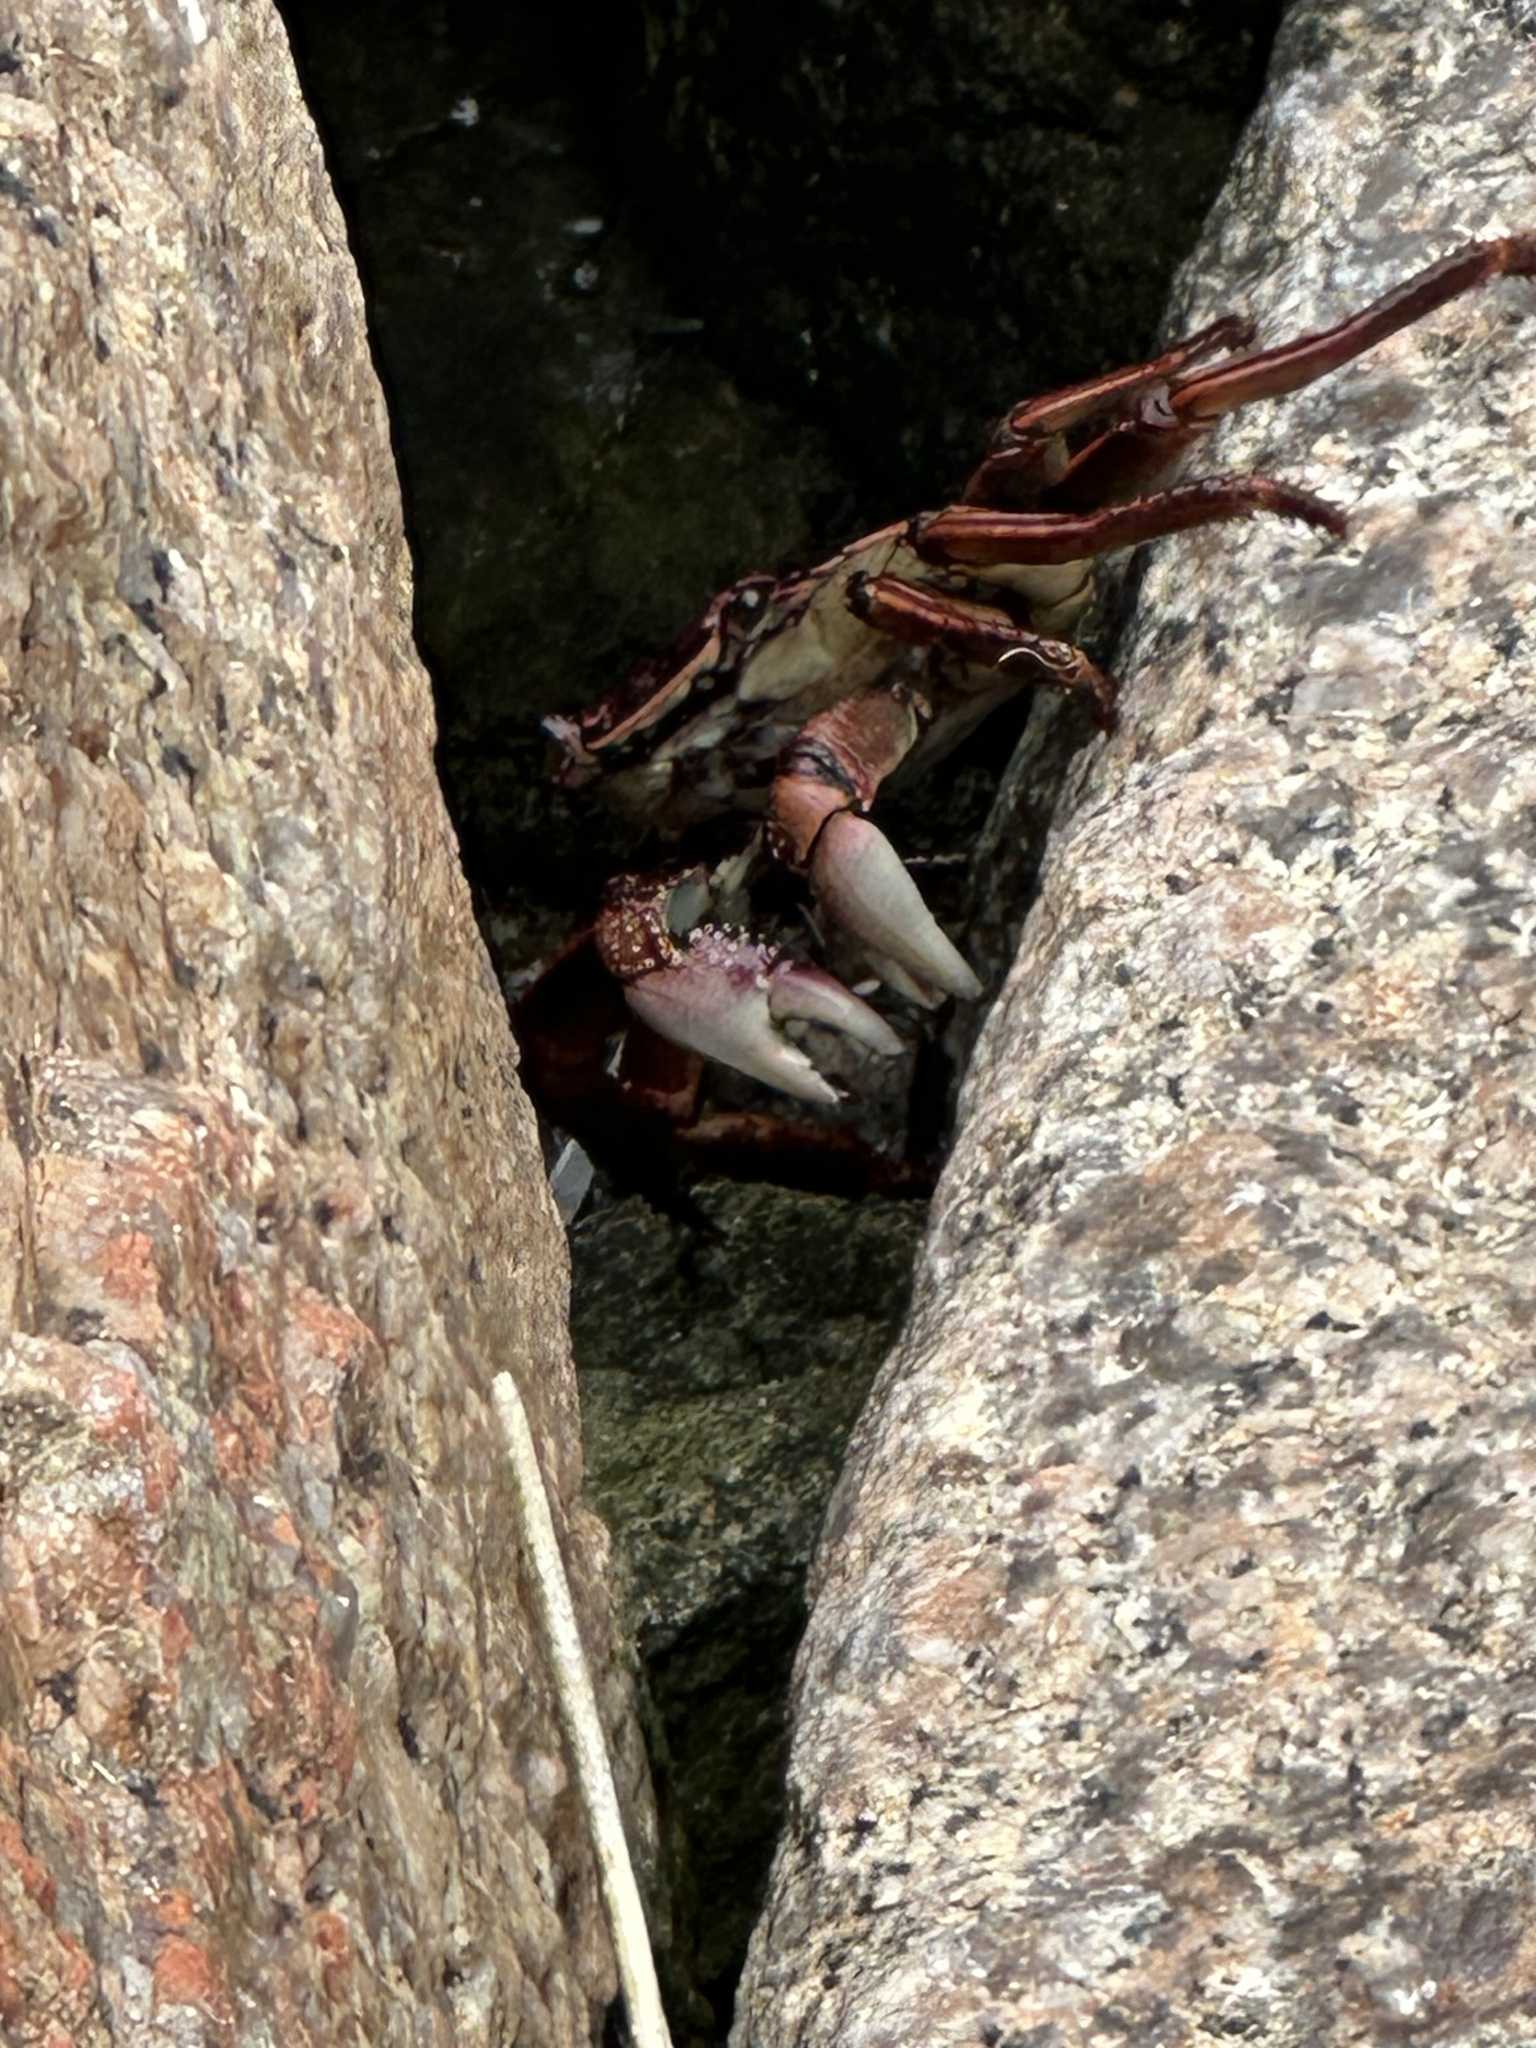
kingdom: Animalia
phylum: Arthropoda
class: Malacostraca
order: Decapoda
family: Grapsidae
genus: Leptograpsus
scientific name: Leptograpsus variegatus
